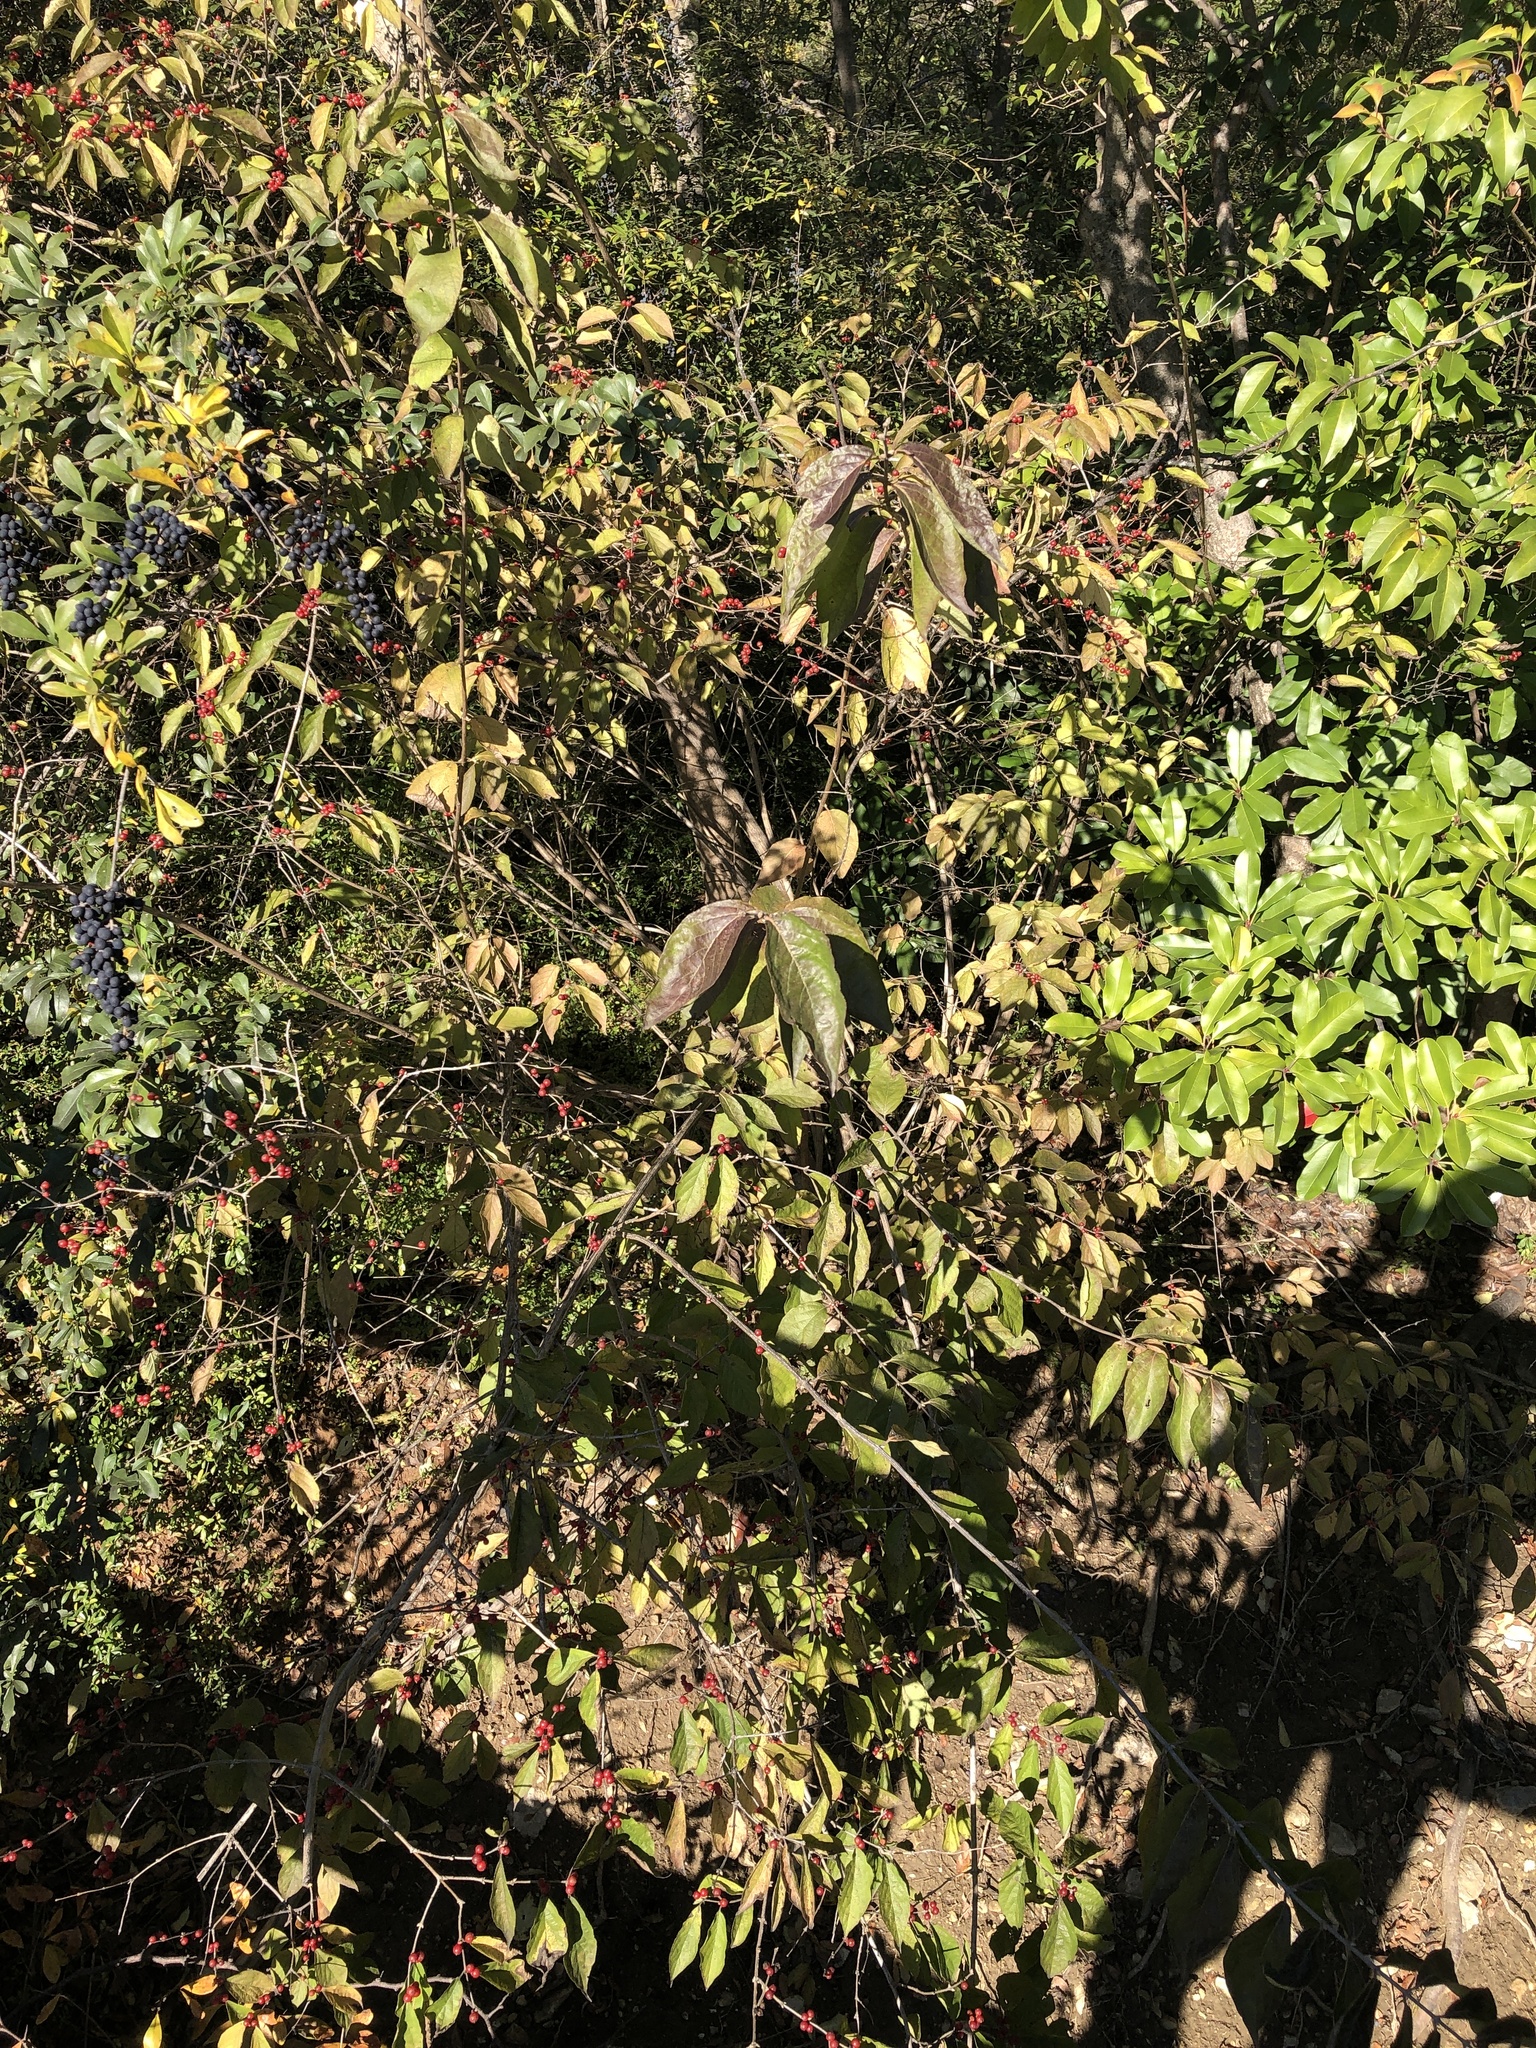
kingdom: Plantae
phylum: Tracheophyta
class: Magnoliopsida
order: Dipsacales
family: Caprifoliaceae
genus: Lonicera
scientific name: Lonicera maackii
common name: Amur honeysuckle
